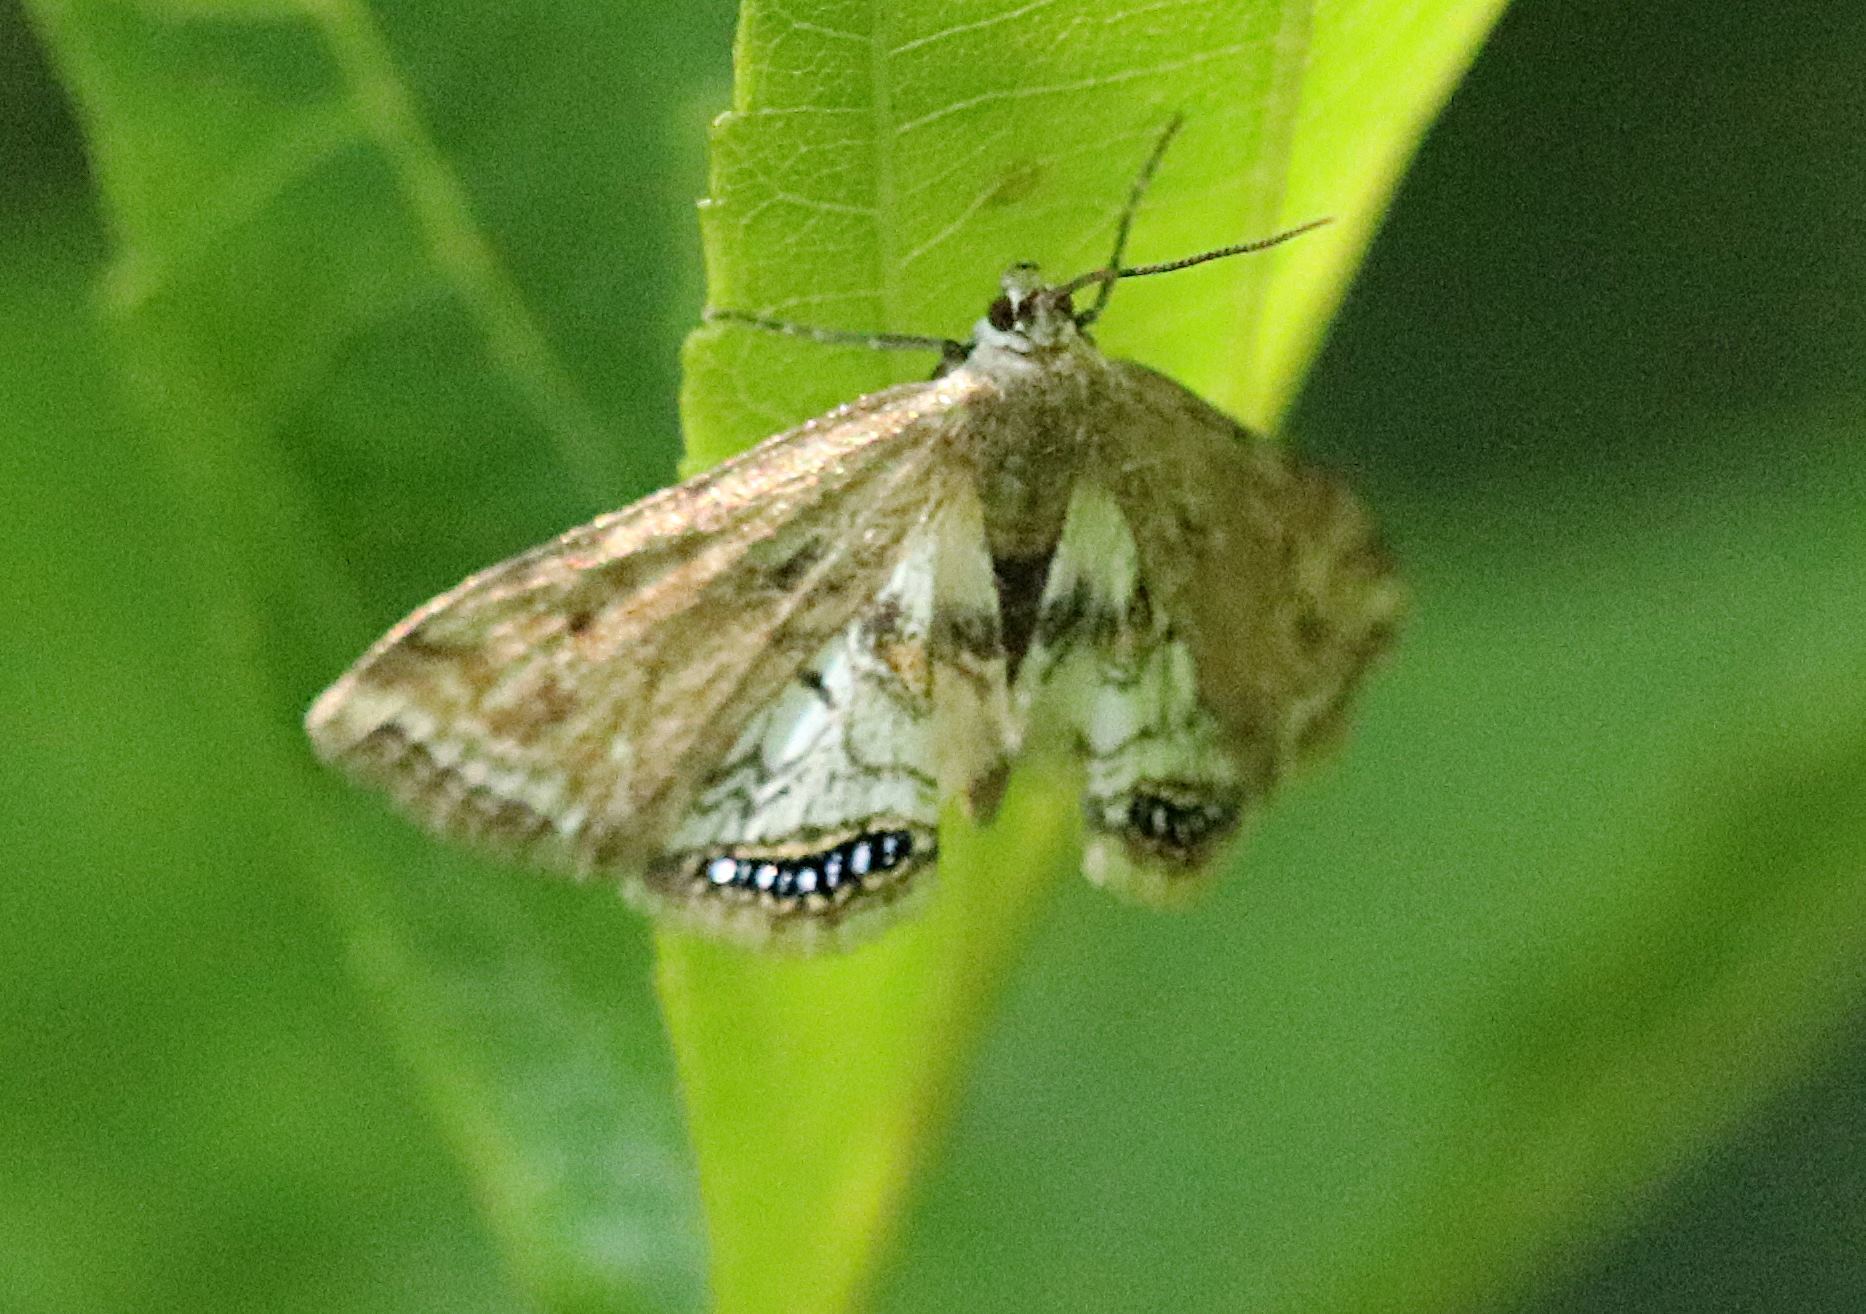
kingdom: Animalia
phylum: Arthropoda
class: Insecta
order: Lepidoptera
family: Crambidae
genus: Cataclysta
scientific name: Cataclysta lemnata
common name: Small china-mark
